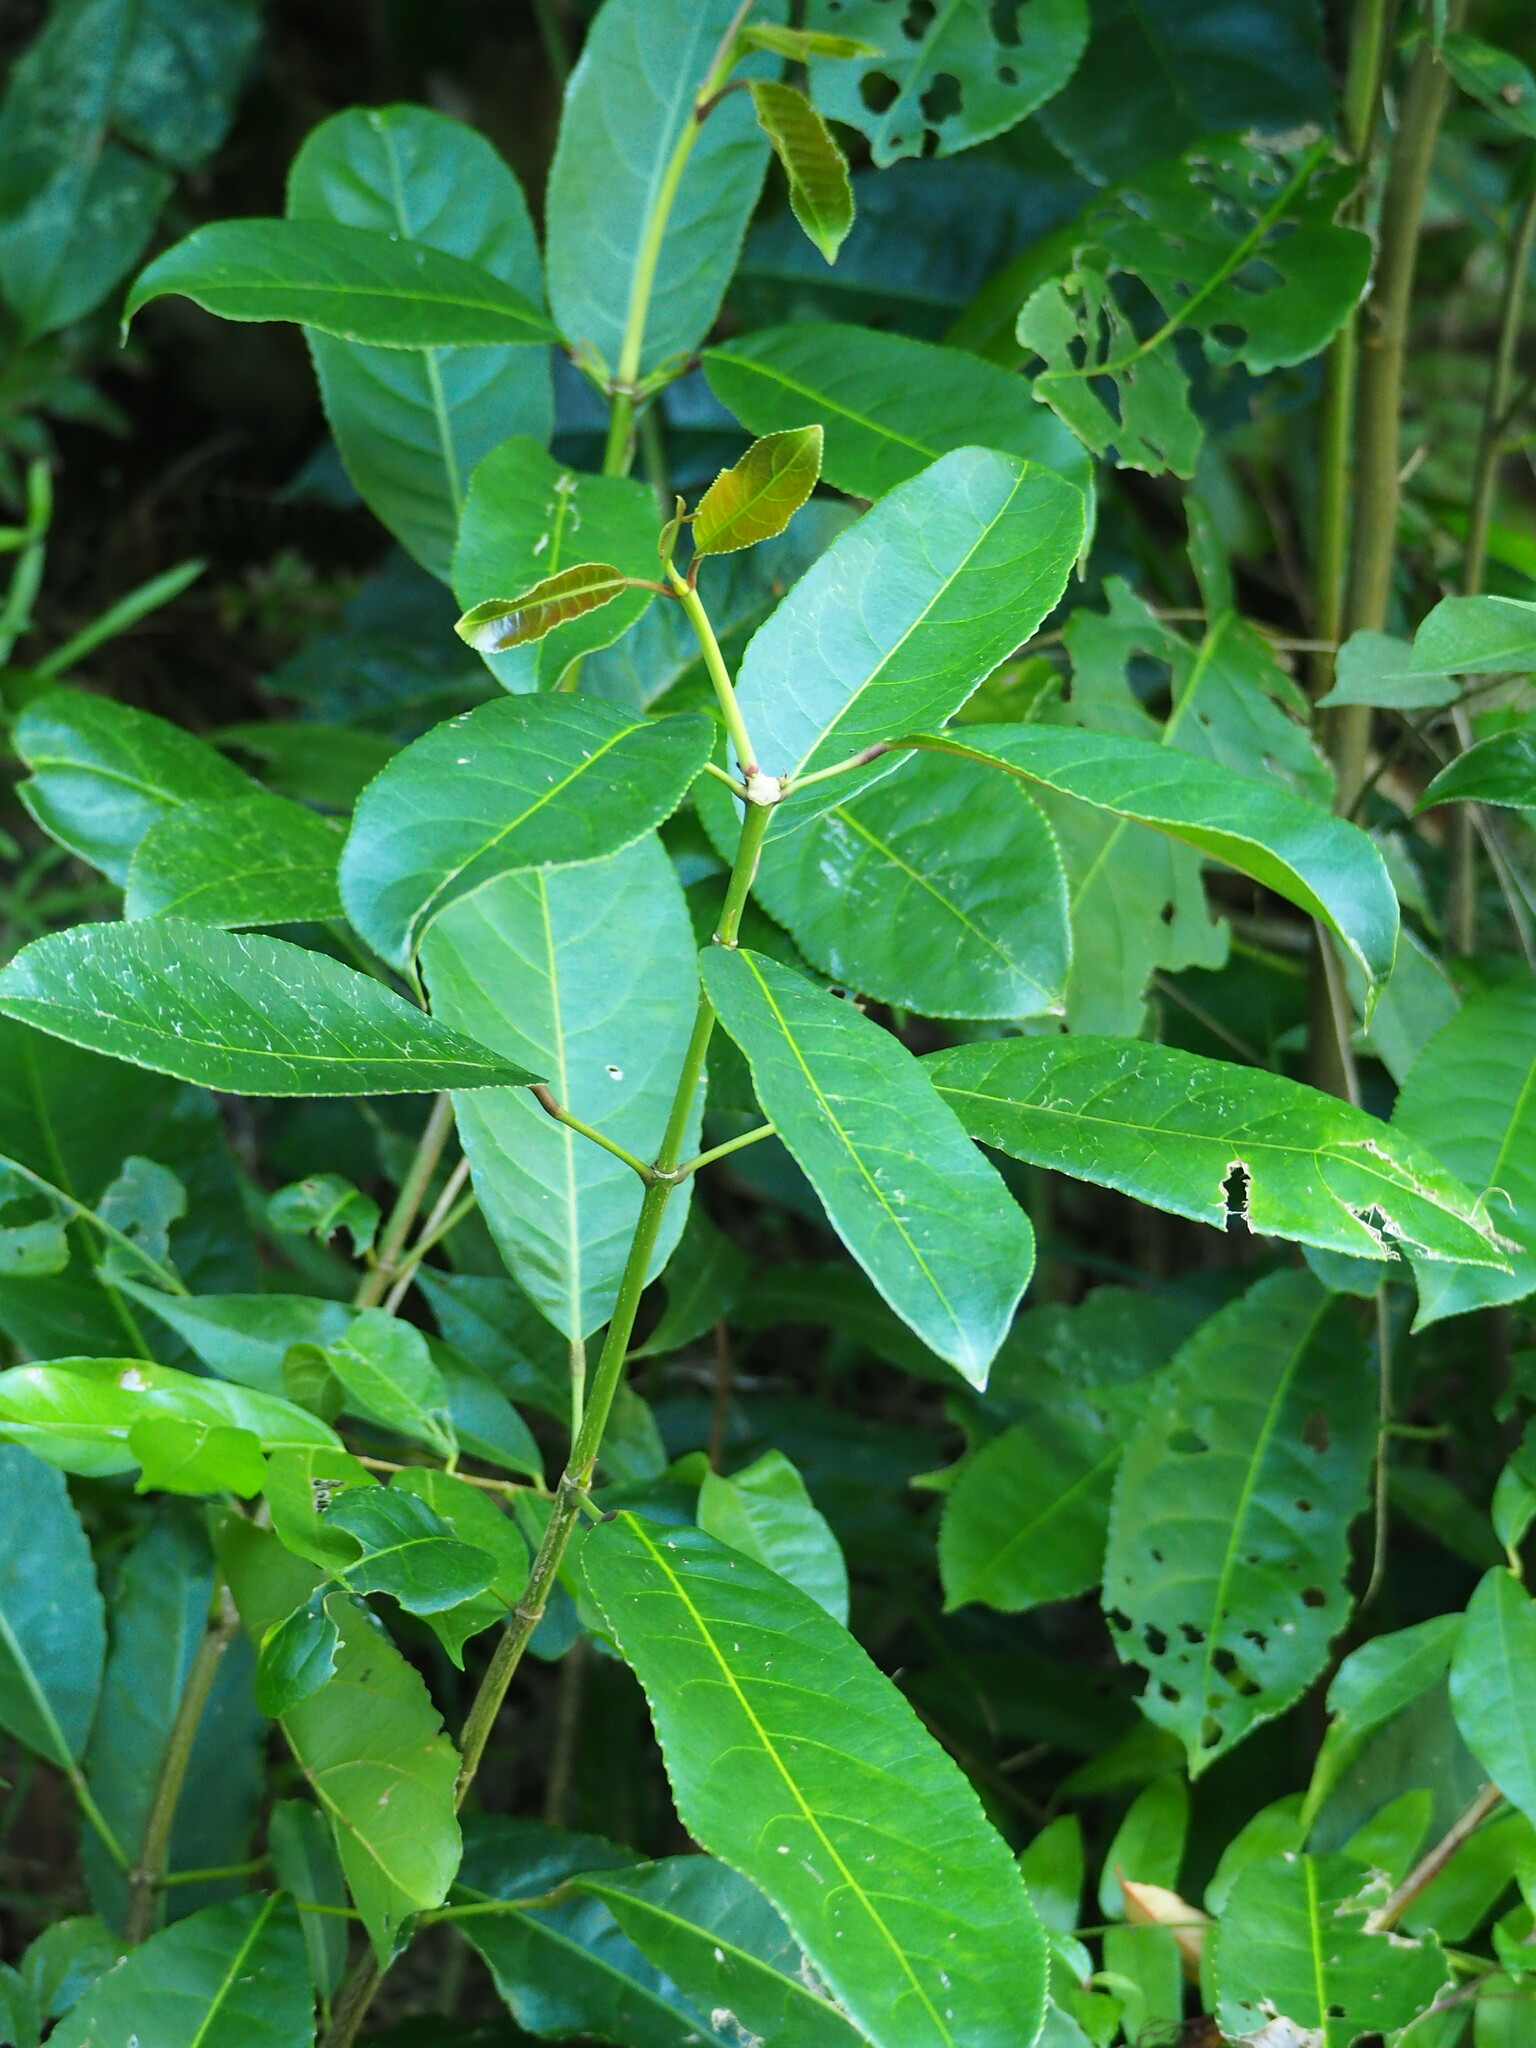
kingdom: Plantae
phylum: Tracheophyta
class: Magnoliopsida
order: Crossosomatales
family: Staphyleaceae
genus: Turpinia
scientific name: Turpinia formosana
